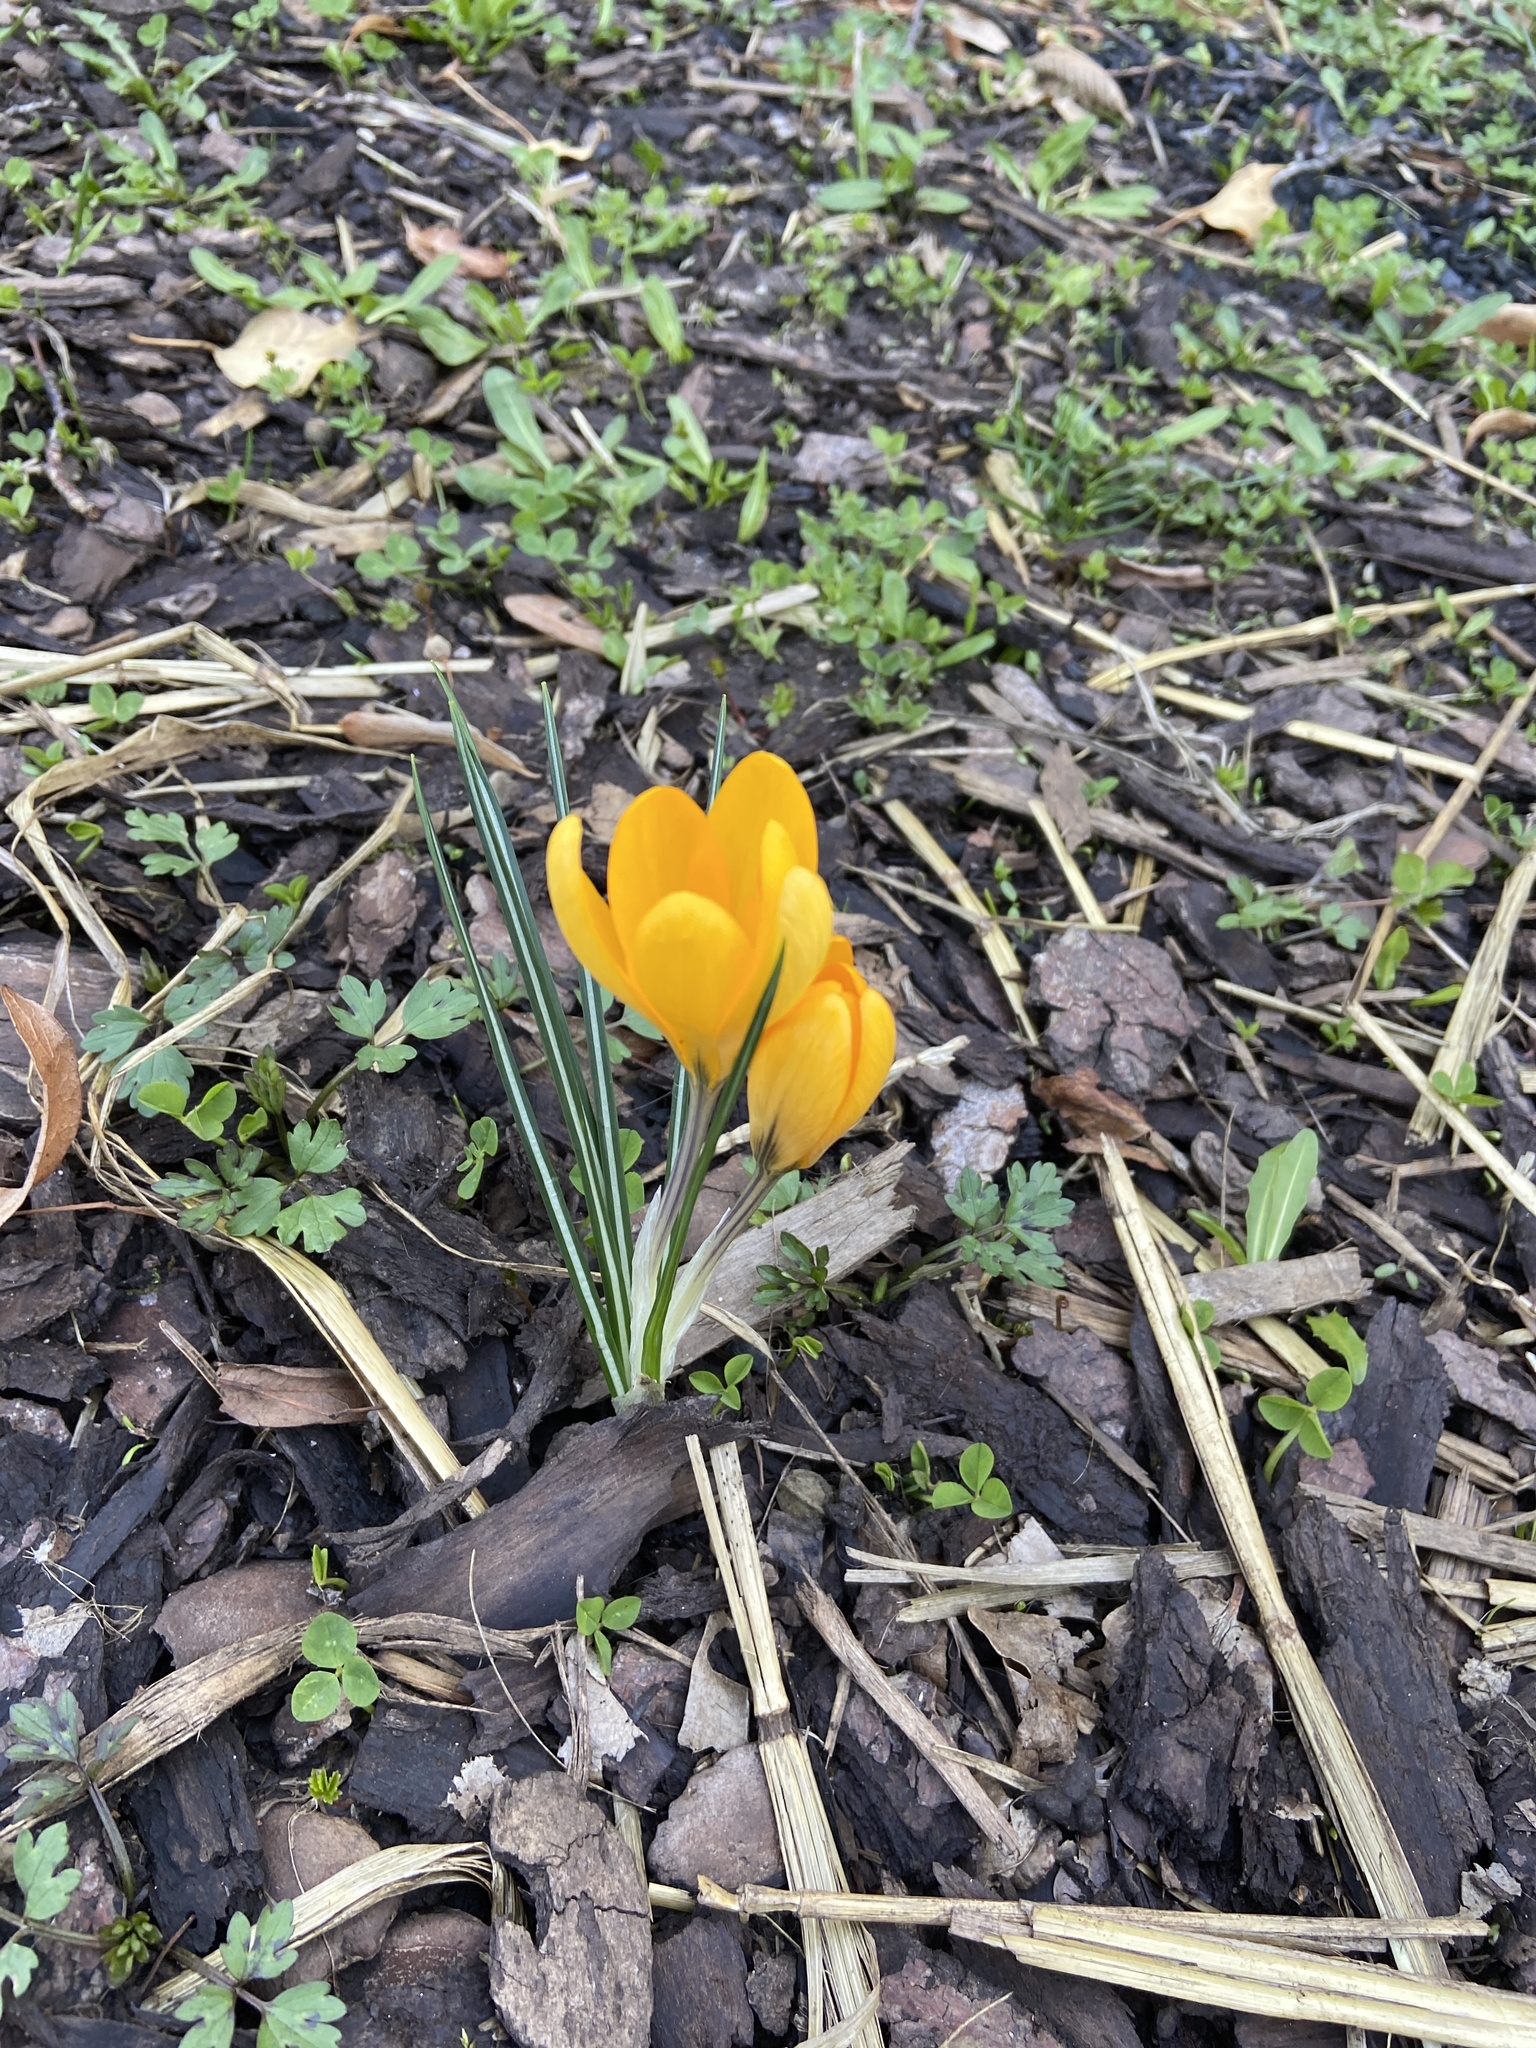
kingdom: Plantae
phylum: Tracheophyta
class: Liliopsida
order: Asparagales
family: Iridaceae
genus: Crocus
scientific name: Crocus luteus
